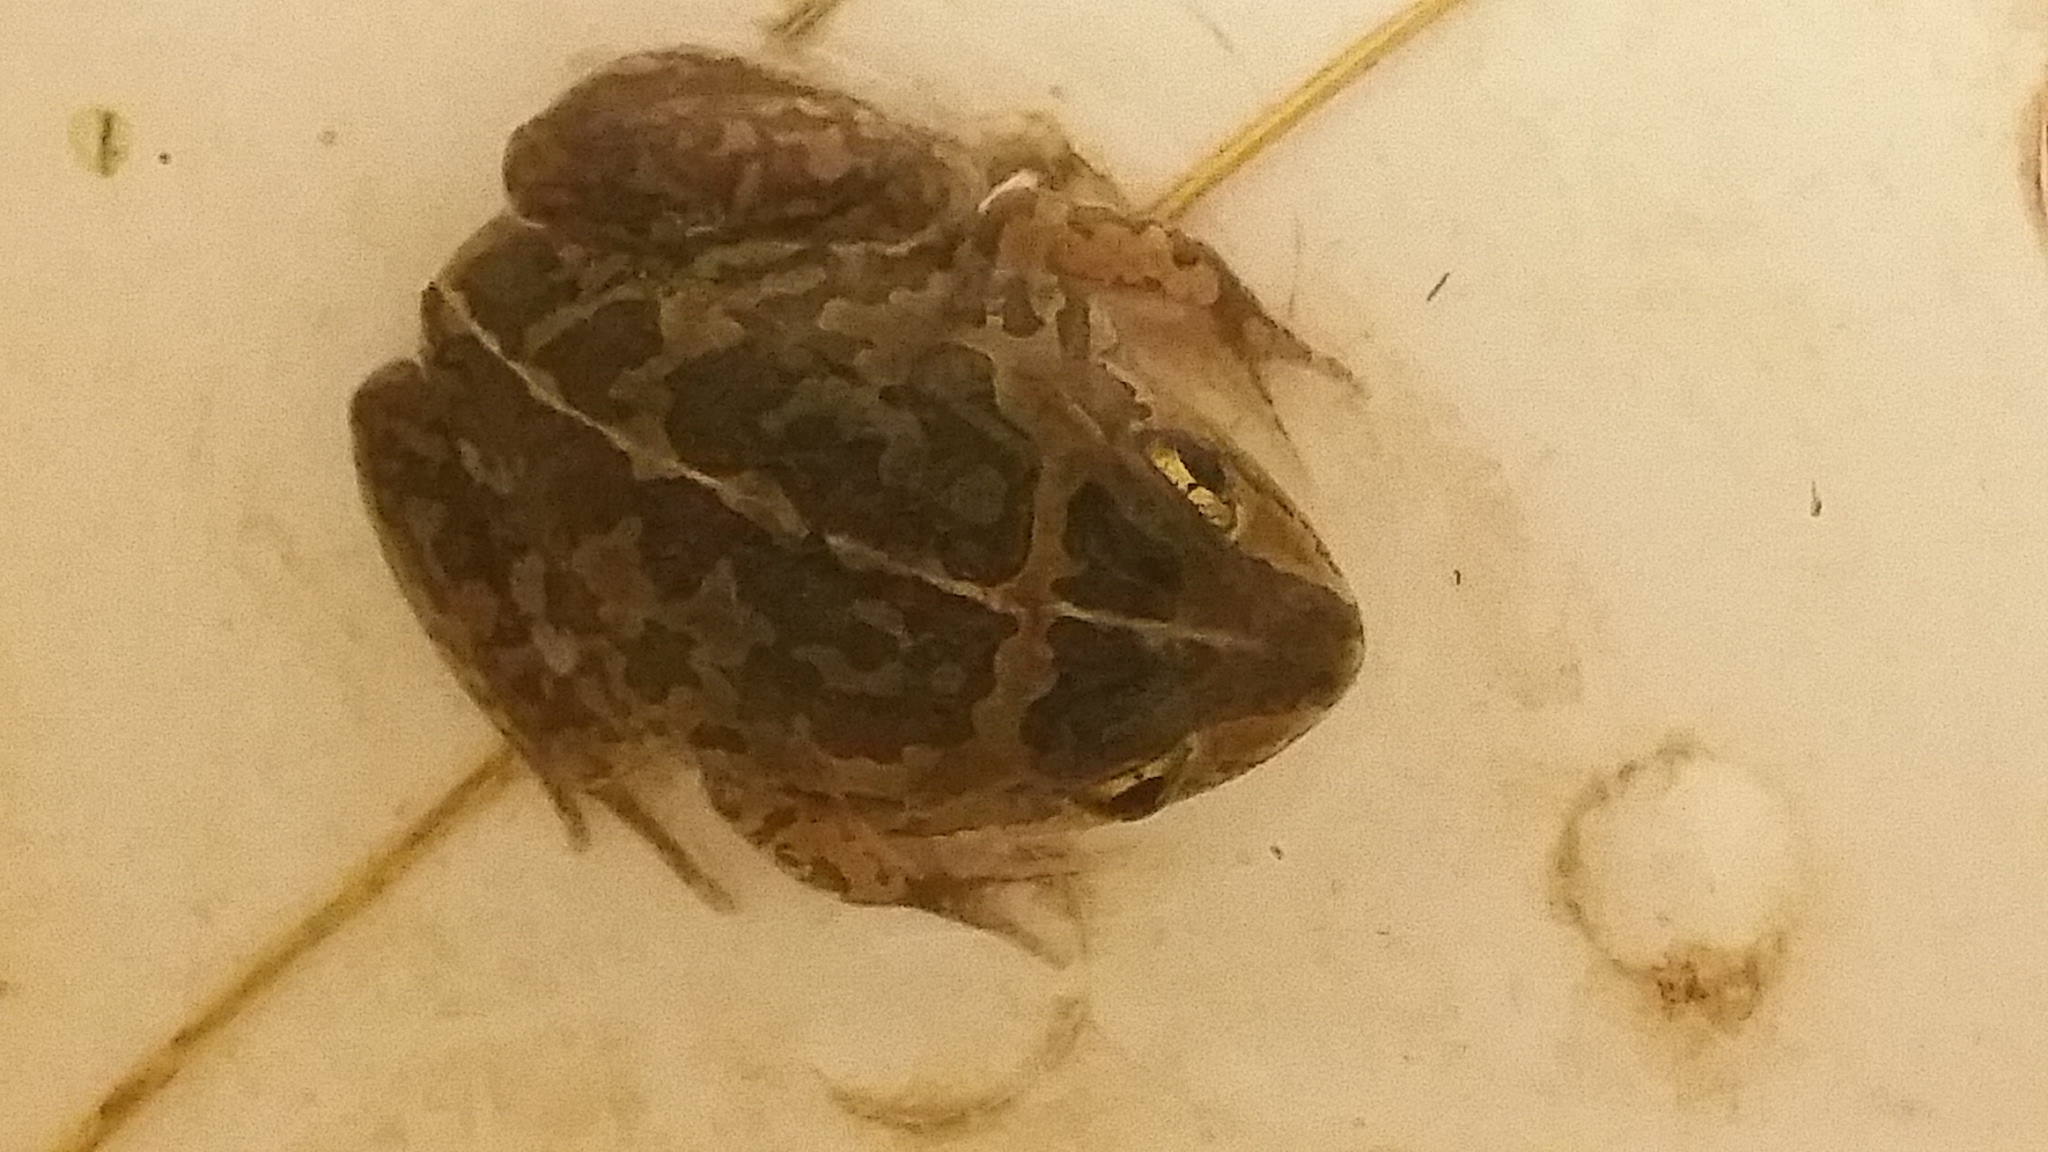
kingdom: Animalia
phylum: Chordata
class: Amphibia
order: Anura
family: Pelodryadidae
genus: Ranoidea
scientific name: Ranoidea brevipes
